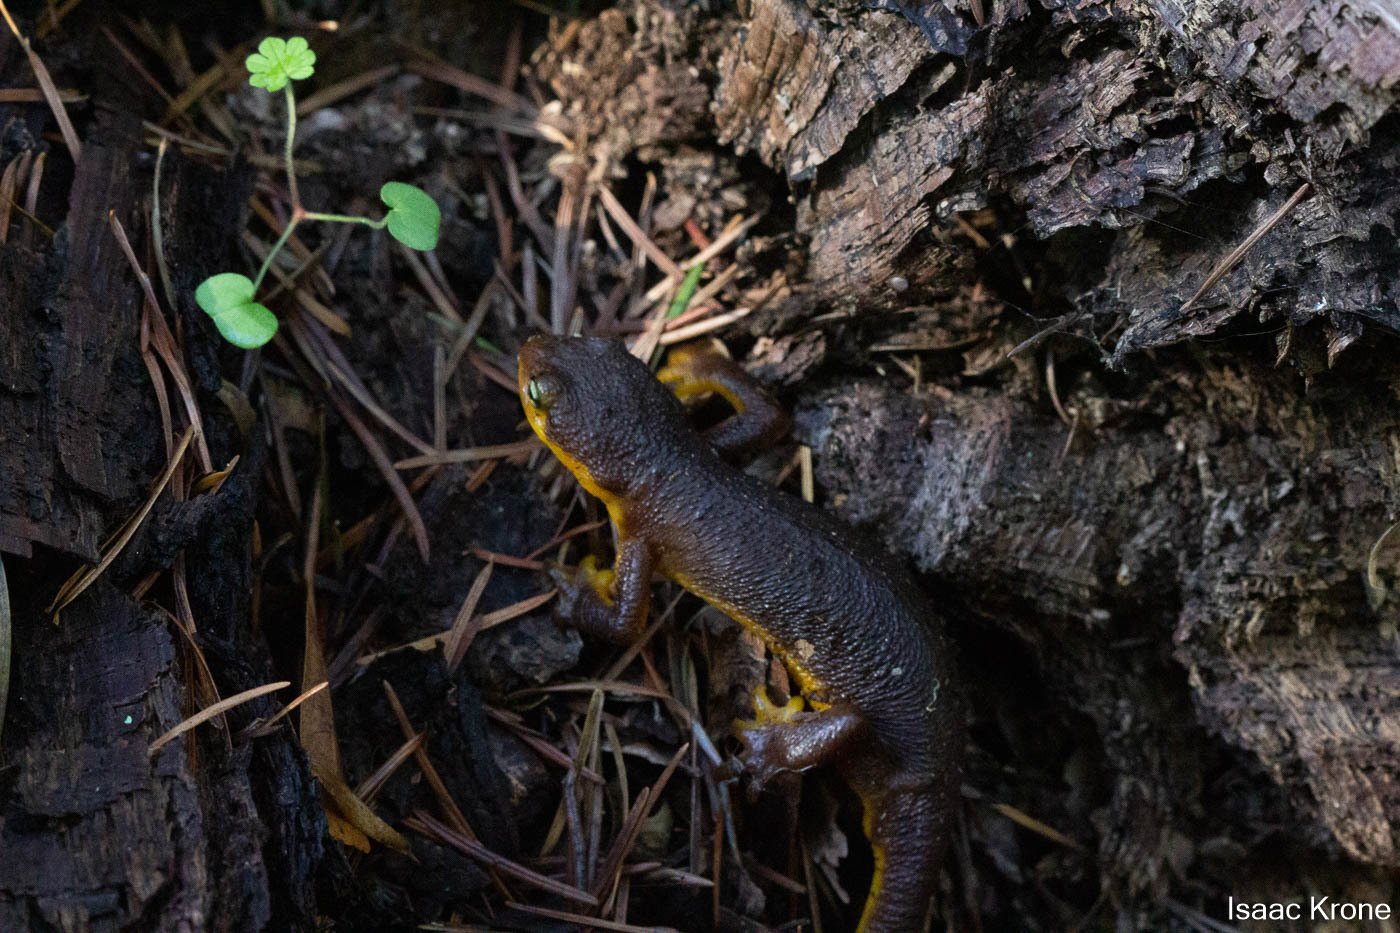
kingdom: Animalia
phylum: Chordata
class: Amphibia
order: Caudata
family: Salamandridae
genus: Taricha
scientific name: Taricha torosa
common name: California newt
